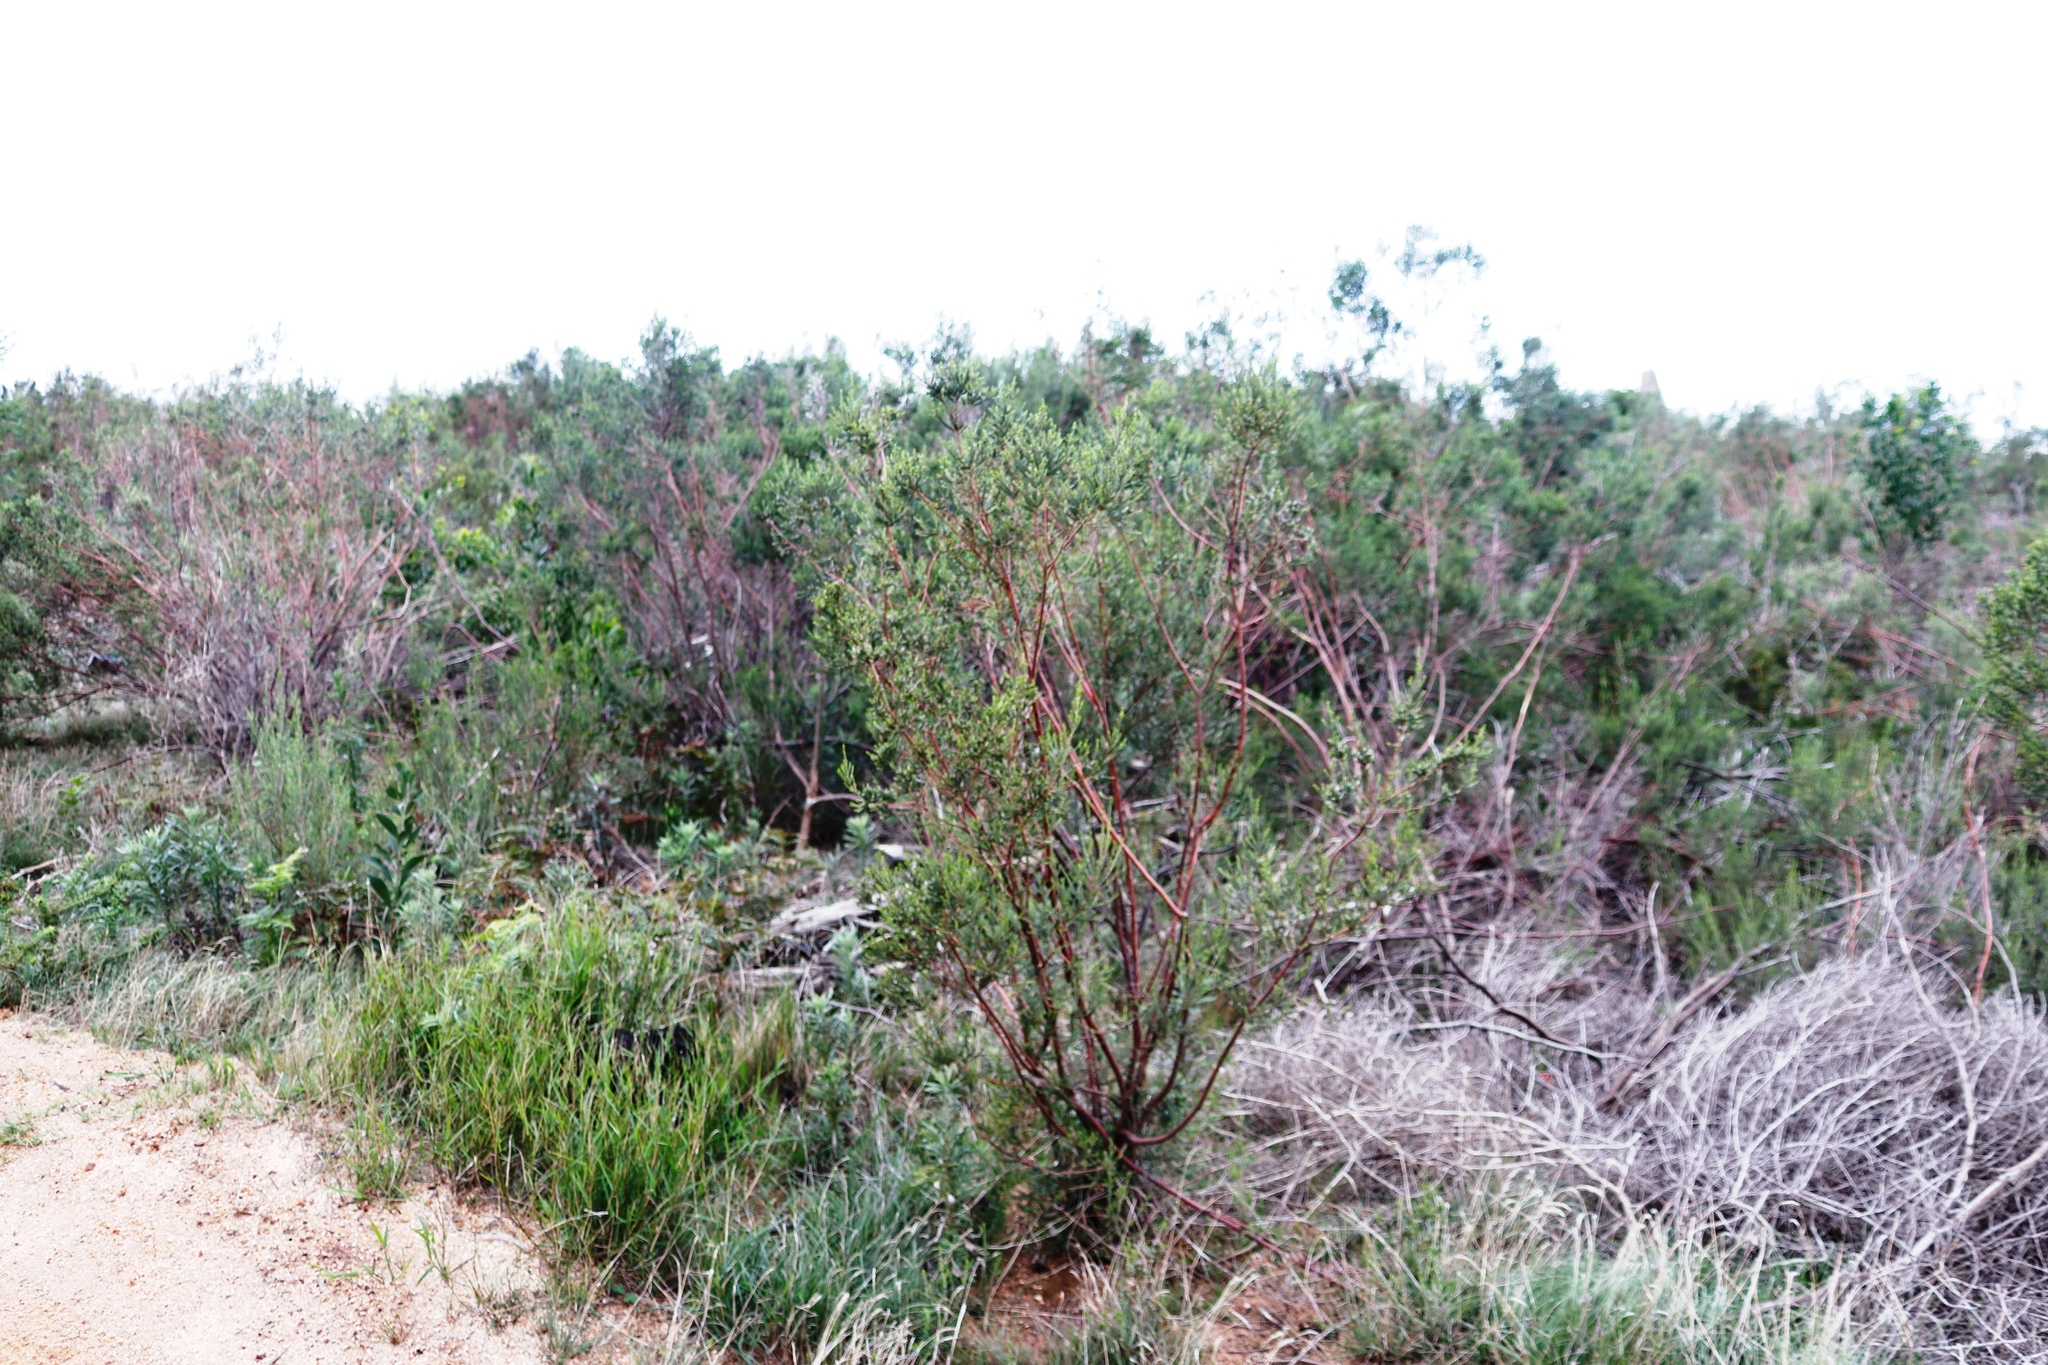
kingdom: Plantae
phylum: Tracheophyta
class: Magnoliopsida
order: Malvales
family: Thymelaeaceae
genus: Passerina
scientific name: Passerina corymbosa
